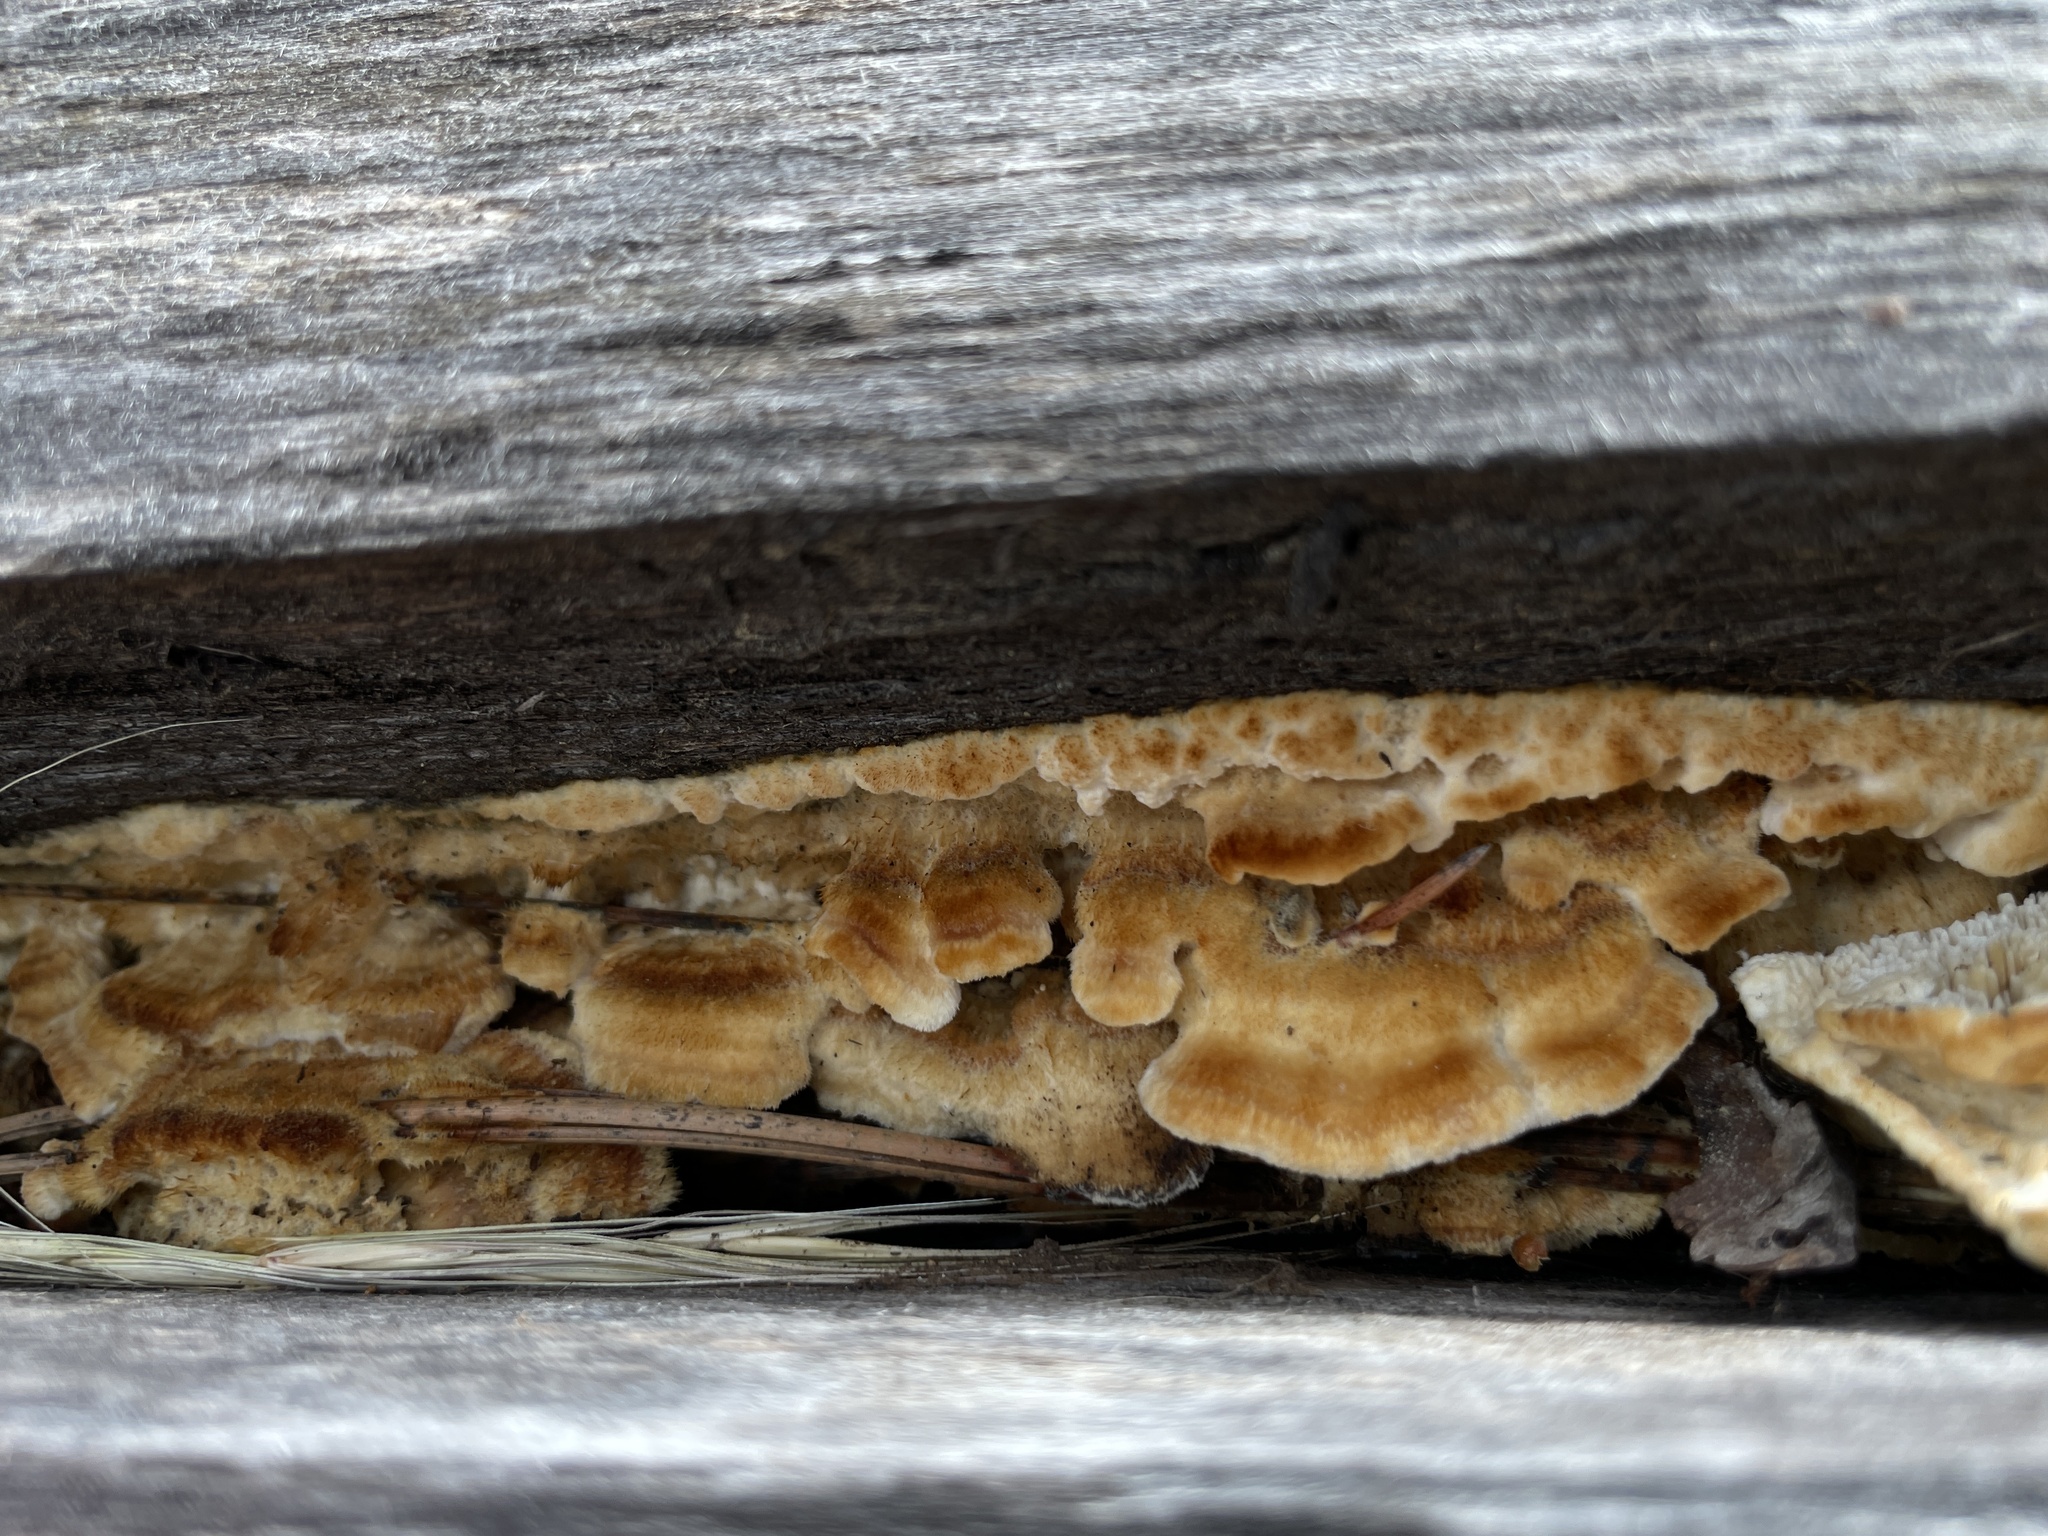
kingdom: Fungi
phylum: Basidiomycota
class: Agaricomycetes
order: Polyporales
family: Irpicaceae
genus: Trametopsis
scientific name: Trametopsis cervina
